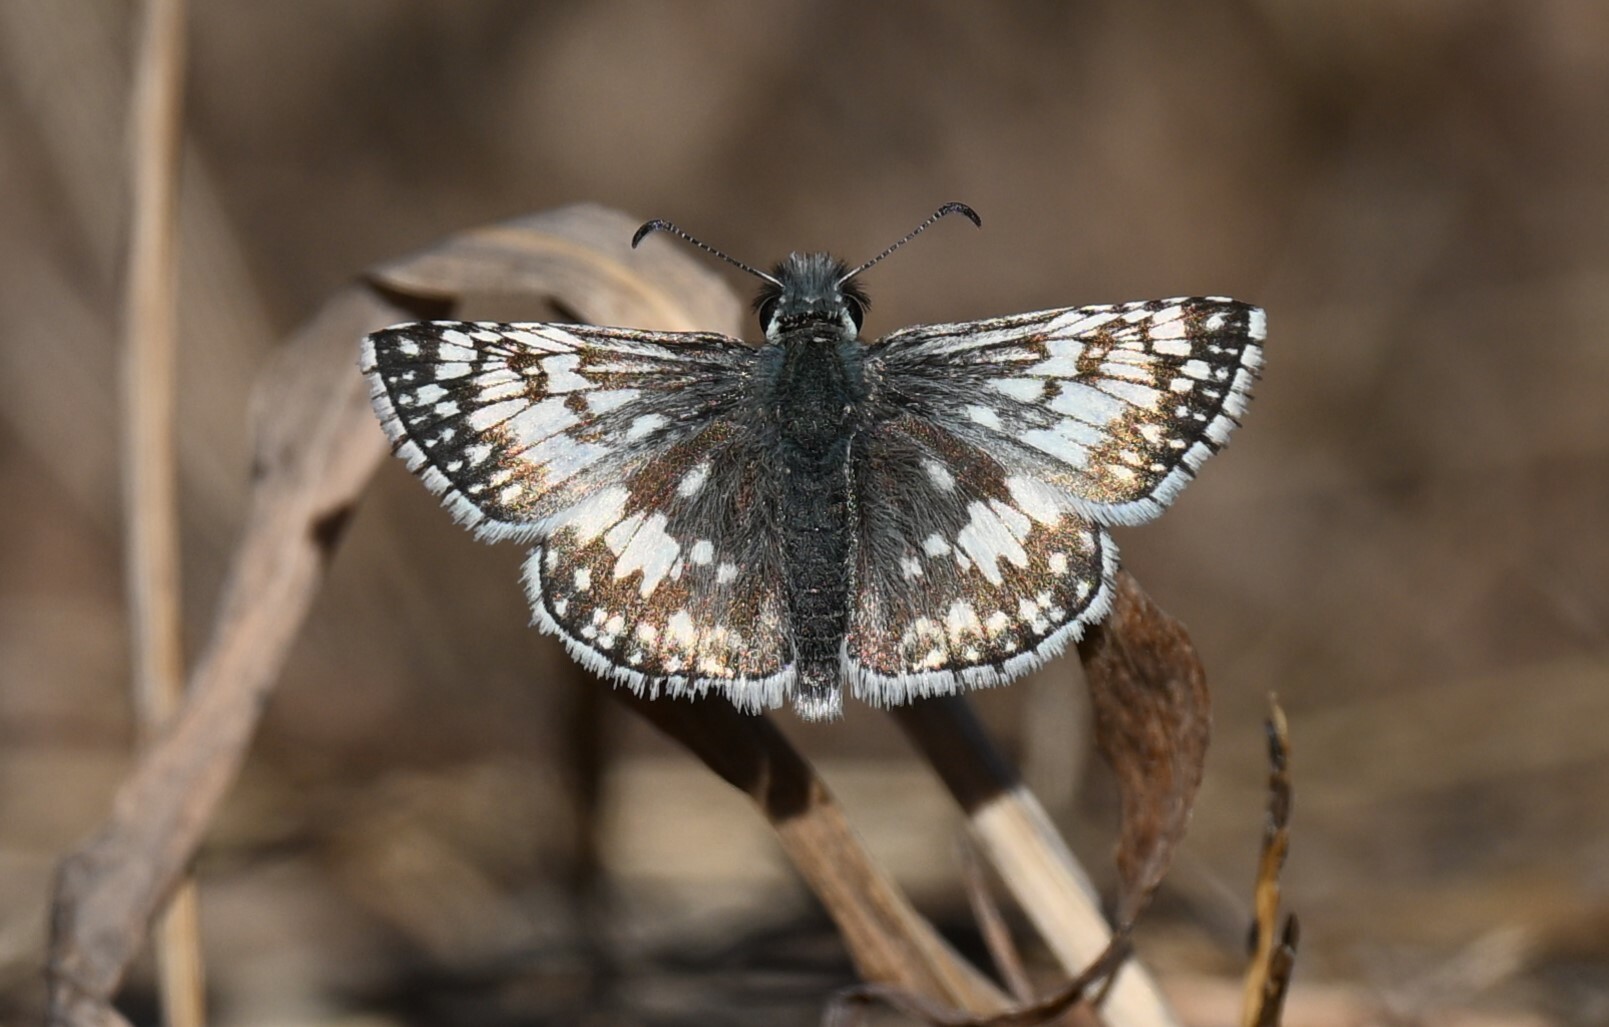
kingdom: Animalia
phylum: Arthropoda
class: Insecta
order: Lepidoptera
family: Hesperiidae
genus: Burnsius
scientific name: Burnsius communis
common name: Common checkered-skipper
